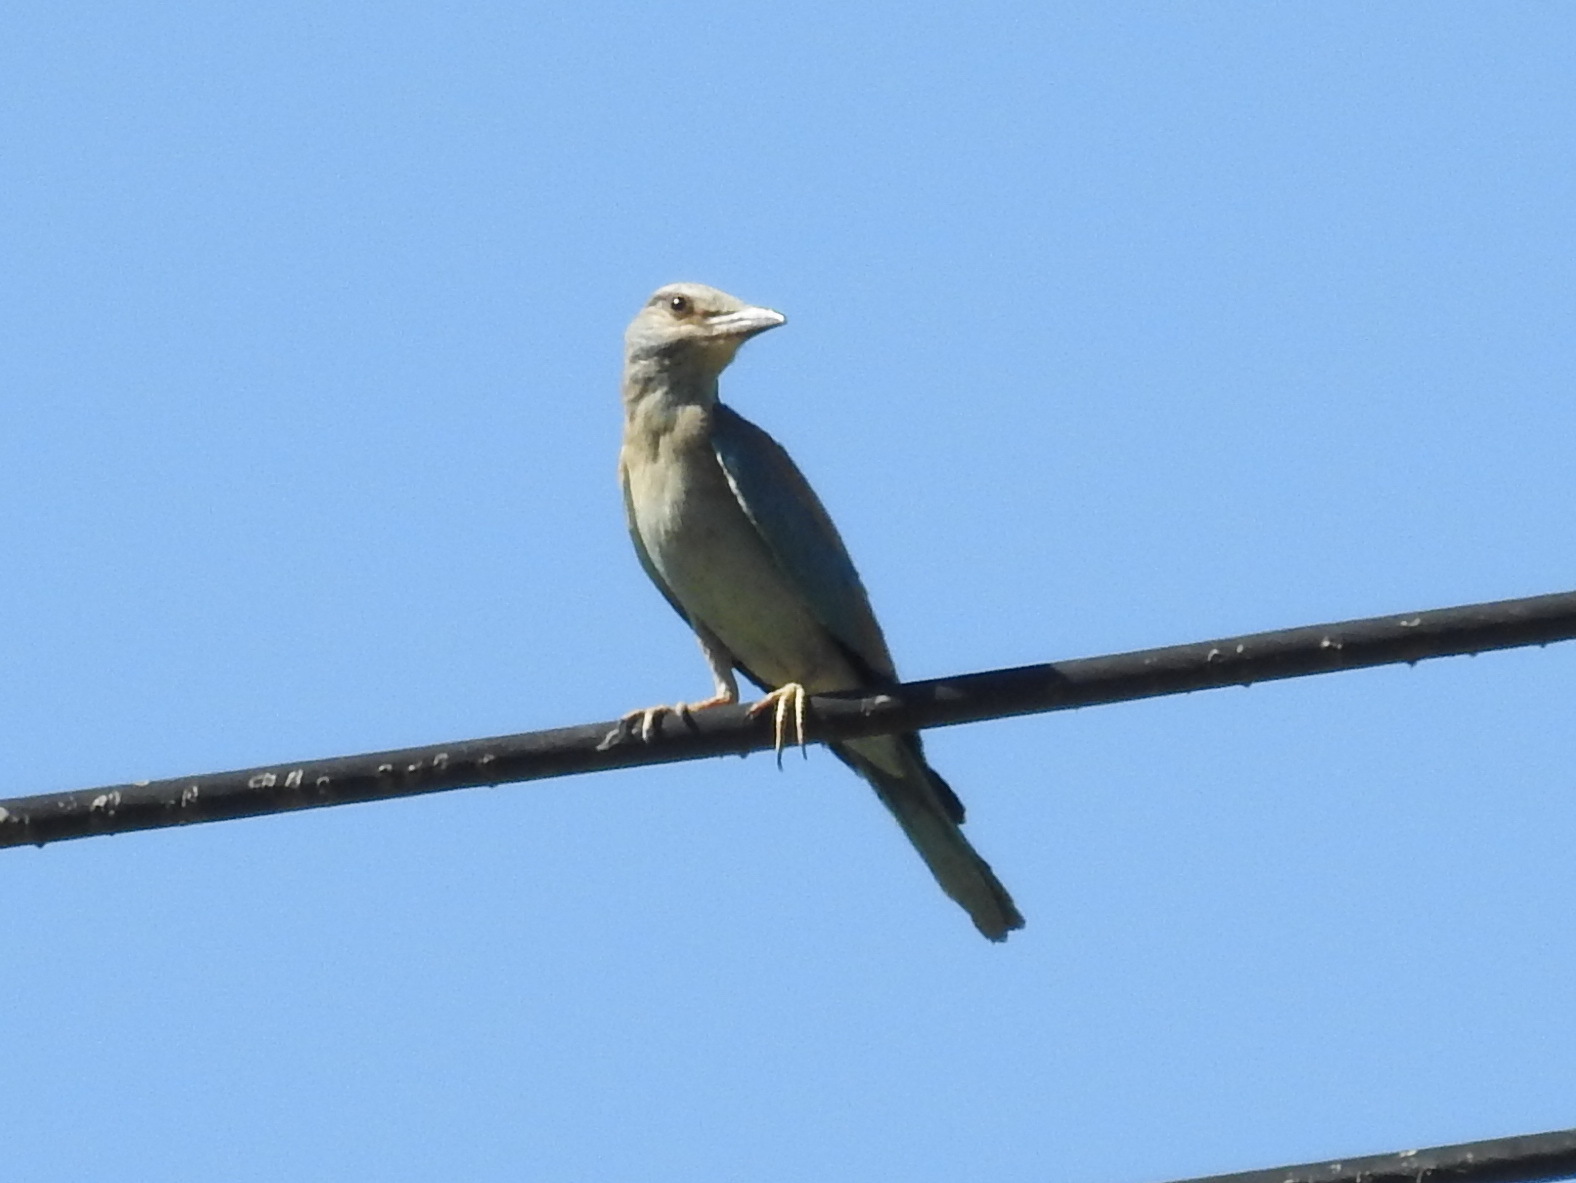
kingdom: Animalia
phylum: Chordata
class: Aves
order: Coraciiformes
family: Coraciidae
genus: Coracias
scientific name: Coracias garrulus
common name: European roller
